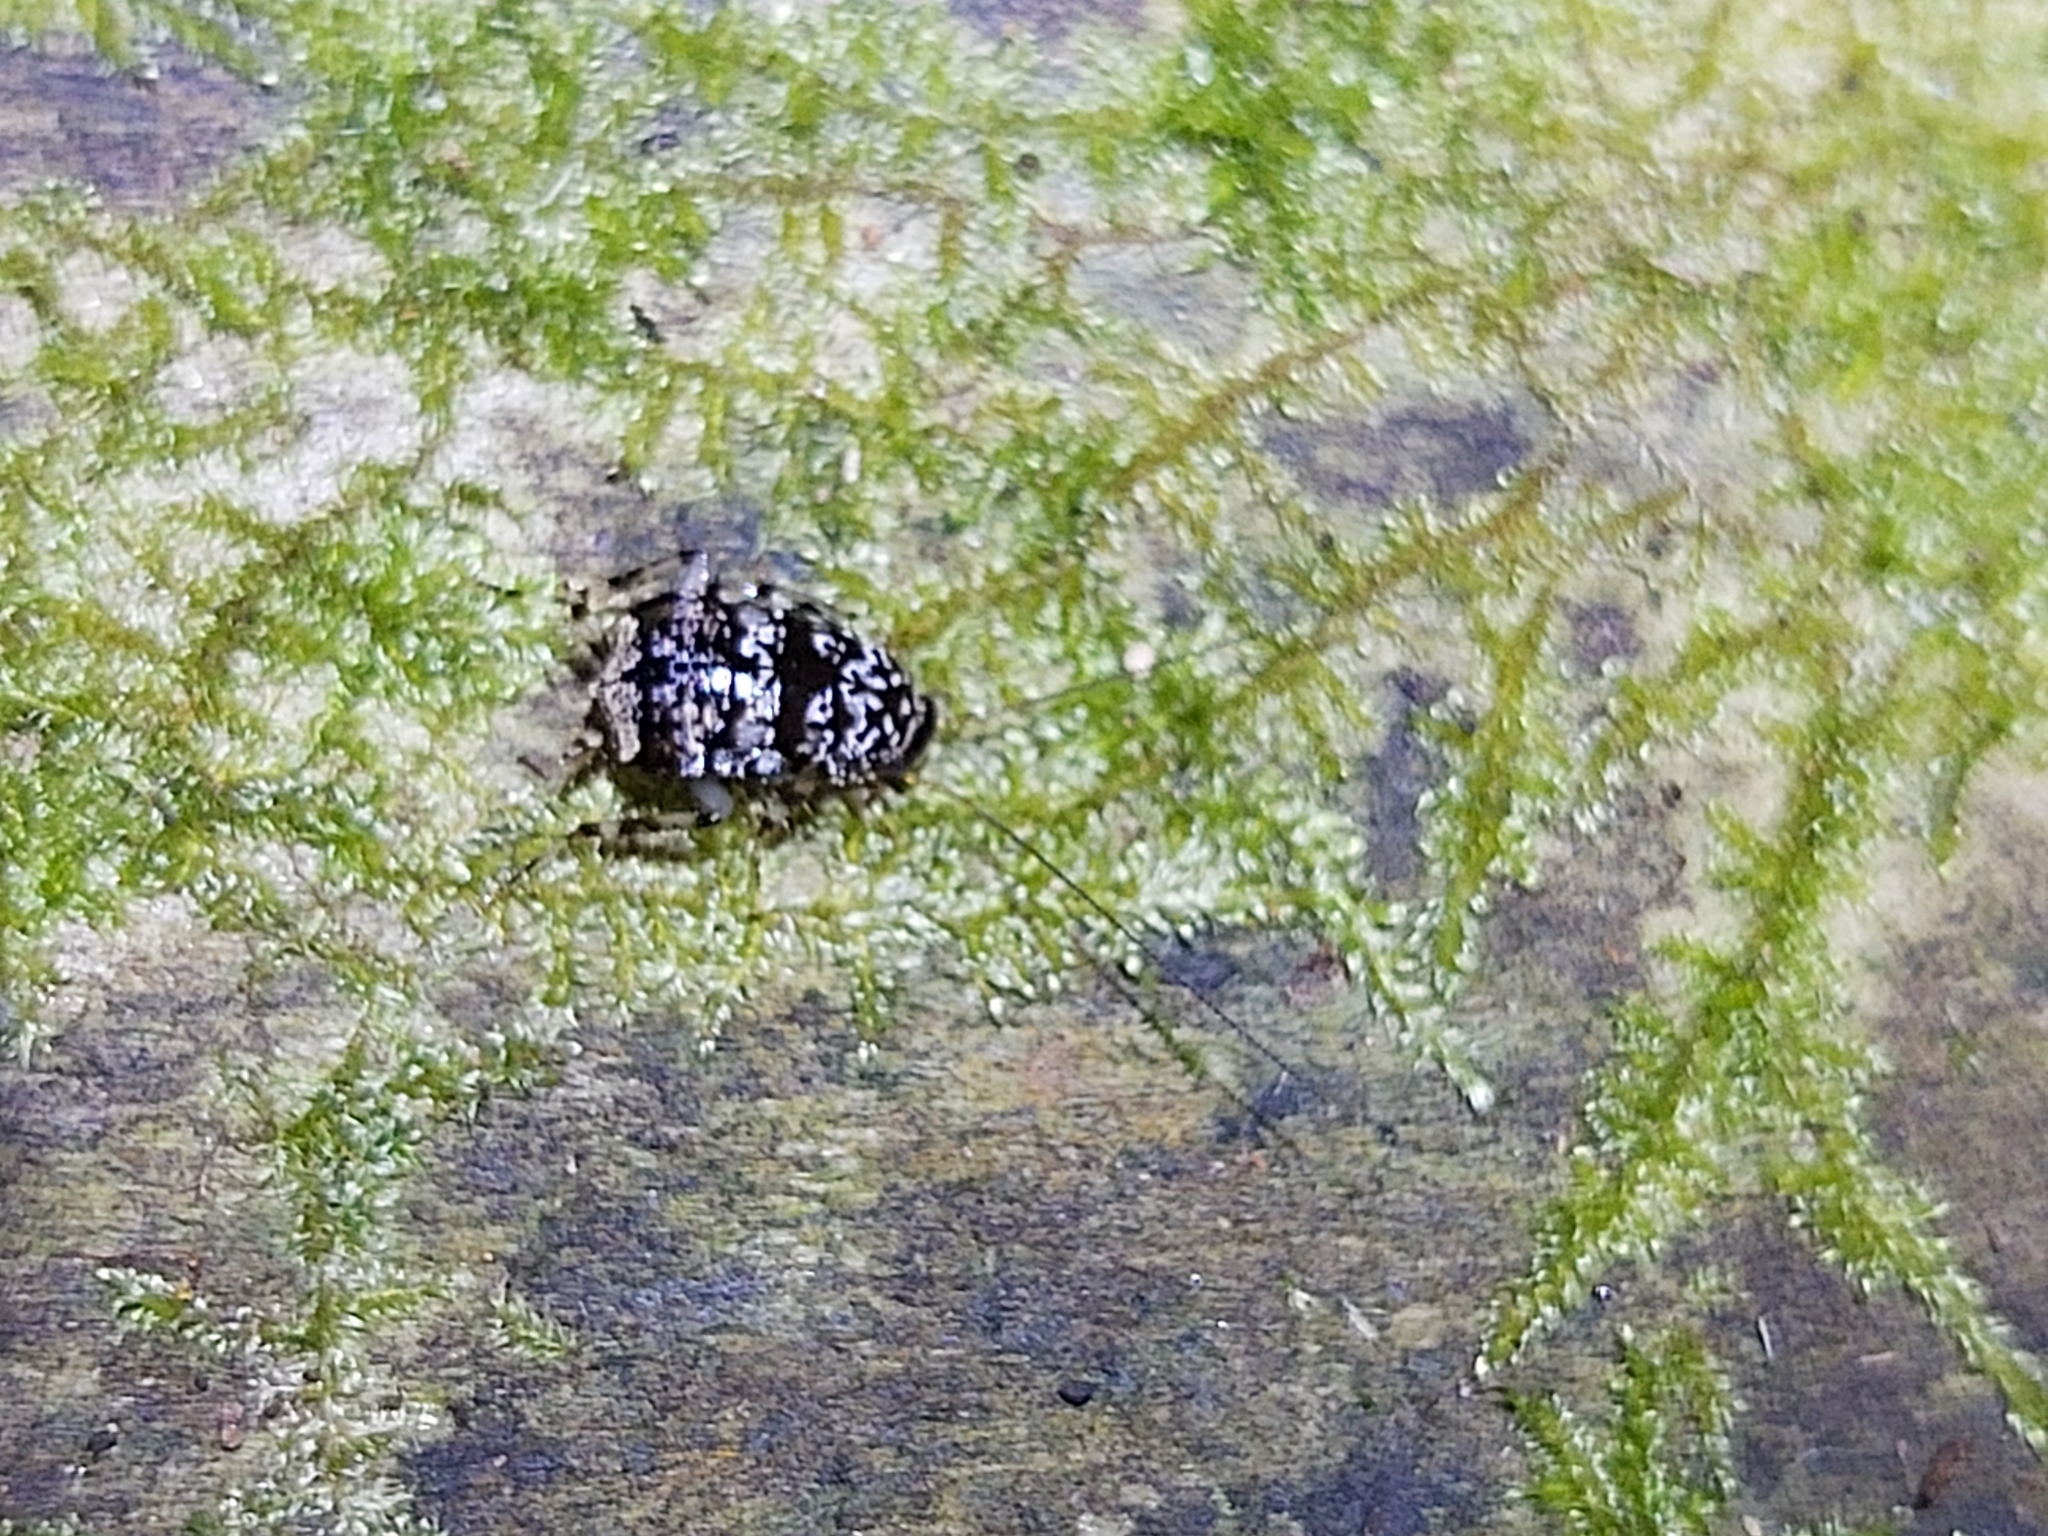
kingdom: Animalia
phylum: Arthropoda
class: Insecta
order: Blattodea
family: Ectobiidae
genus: Allacta
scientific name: Allacta australiensis
